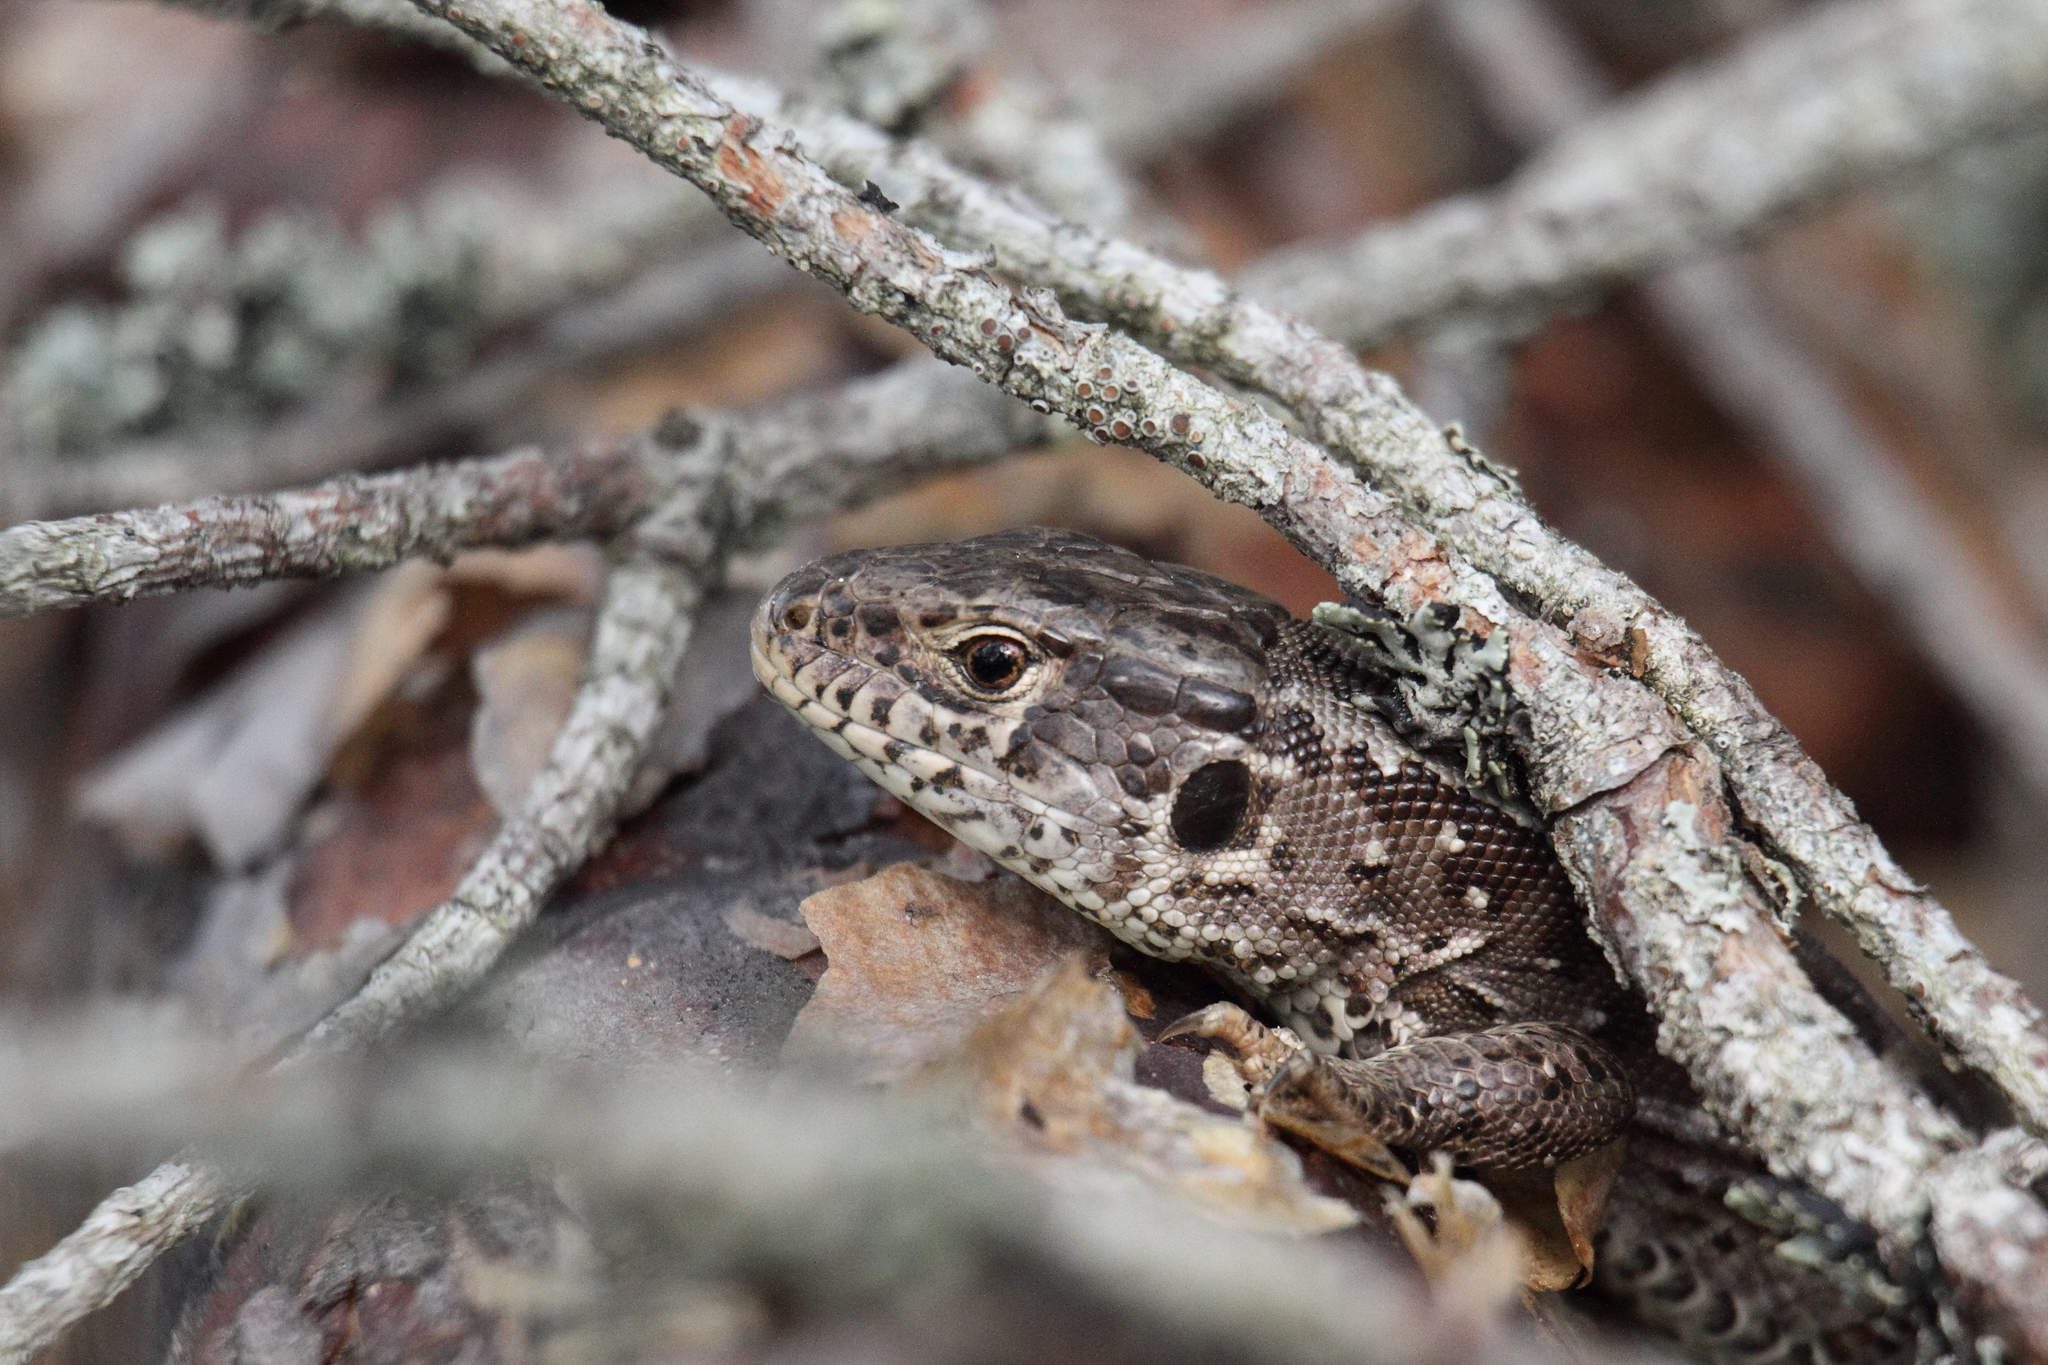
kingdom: Animalia
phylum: Chordata
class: Squamata
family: Lacertidae
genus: Lacerta
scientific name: Lacerta agilis
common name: Sand lizard
